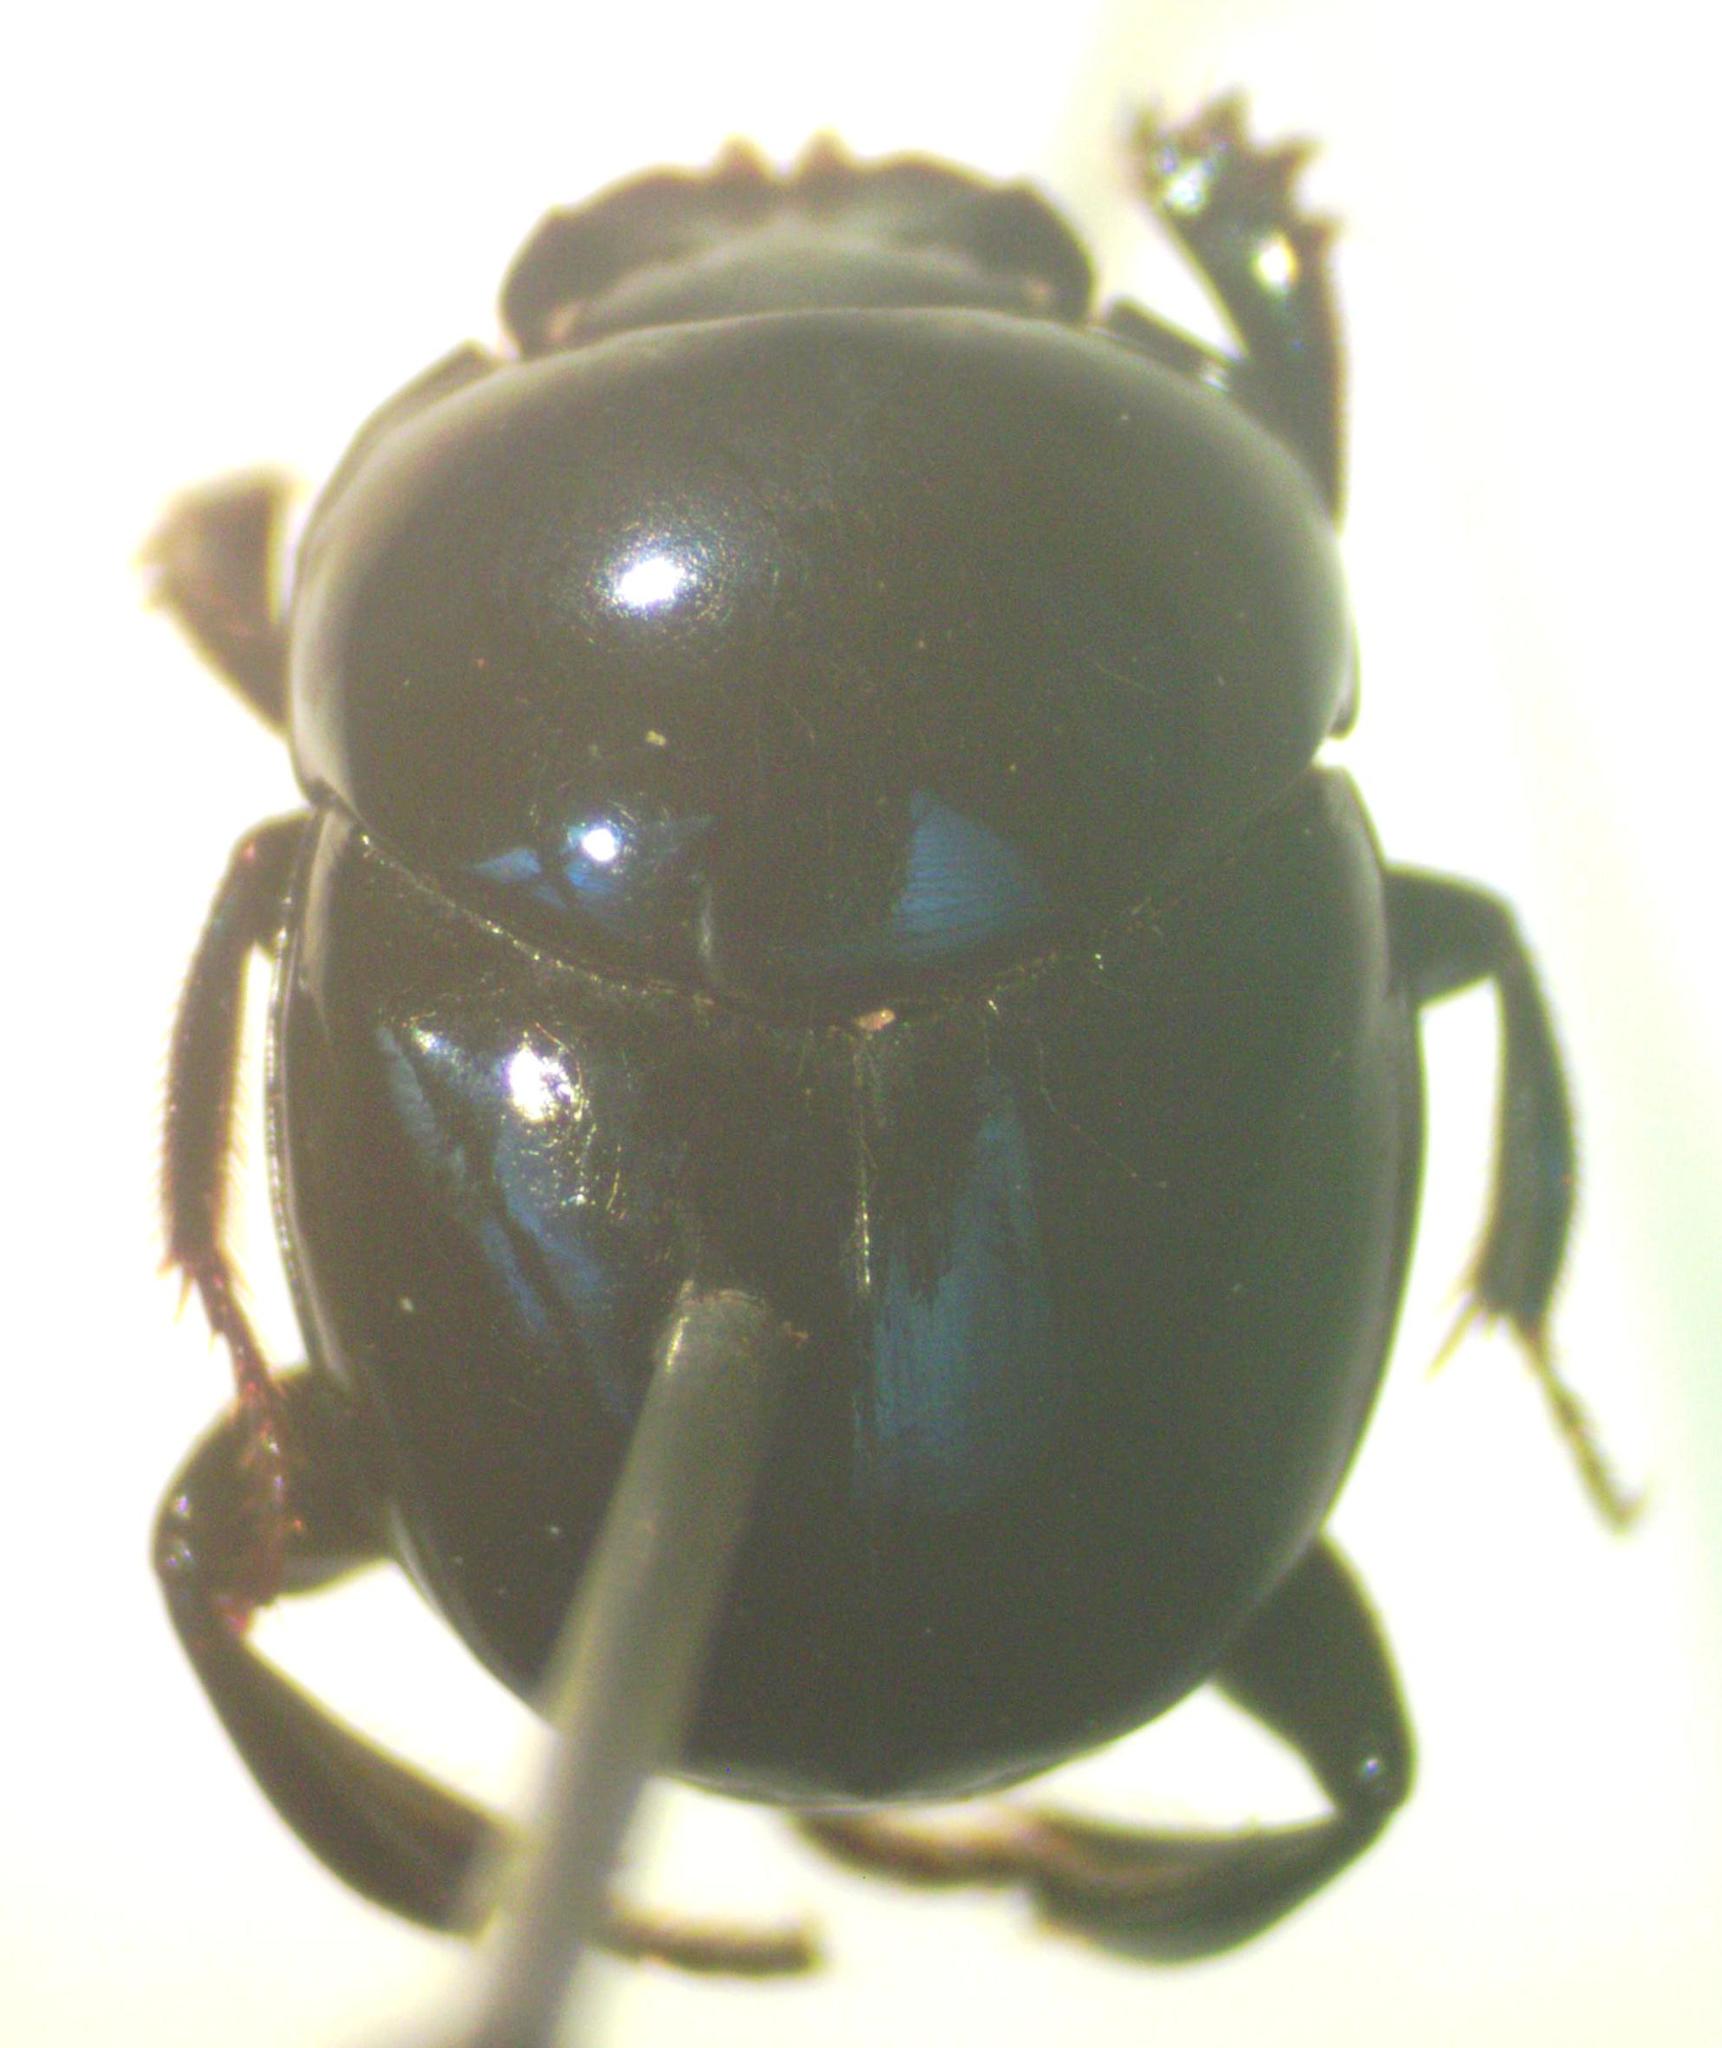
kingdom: Animalia
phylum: Arthropoda
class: Insecta
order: Coleoptera
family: Scarabaeidae
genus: Canthon
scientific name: Canthon euryscelis
